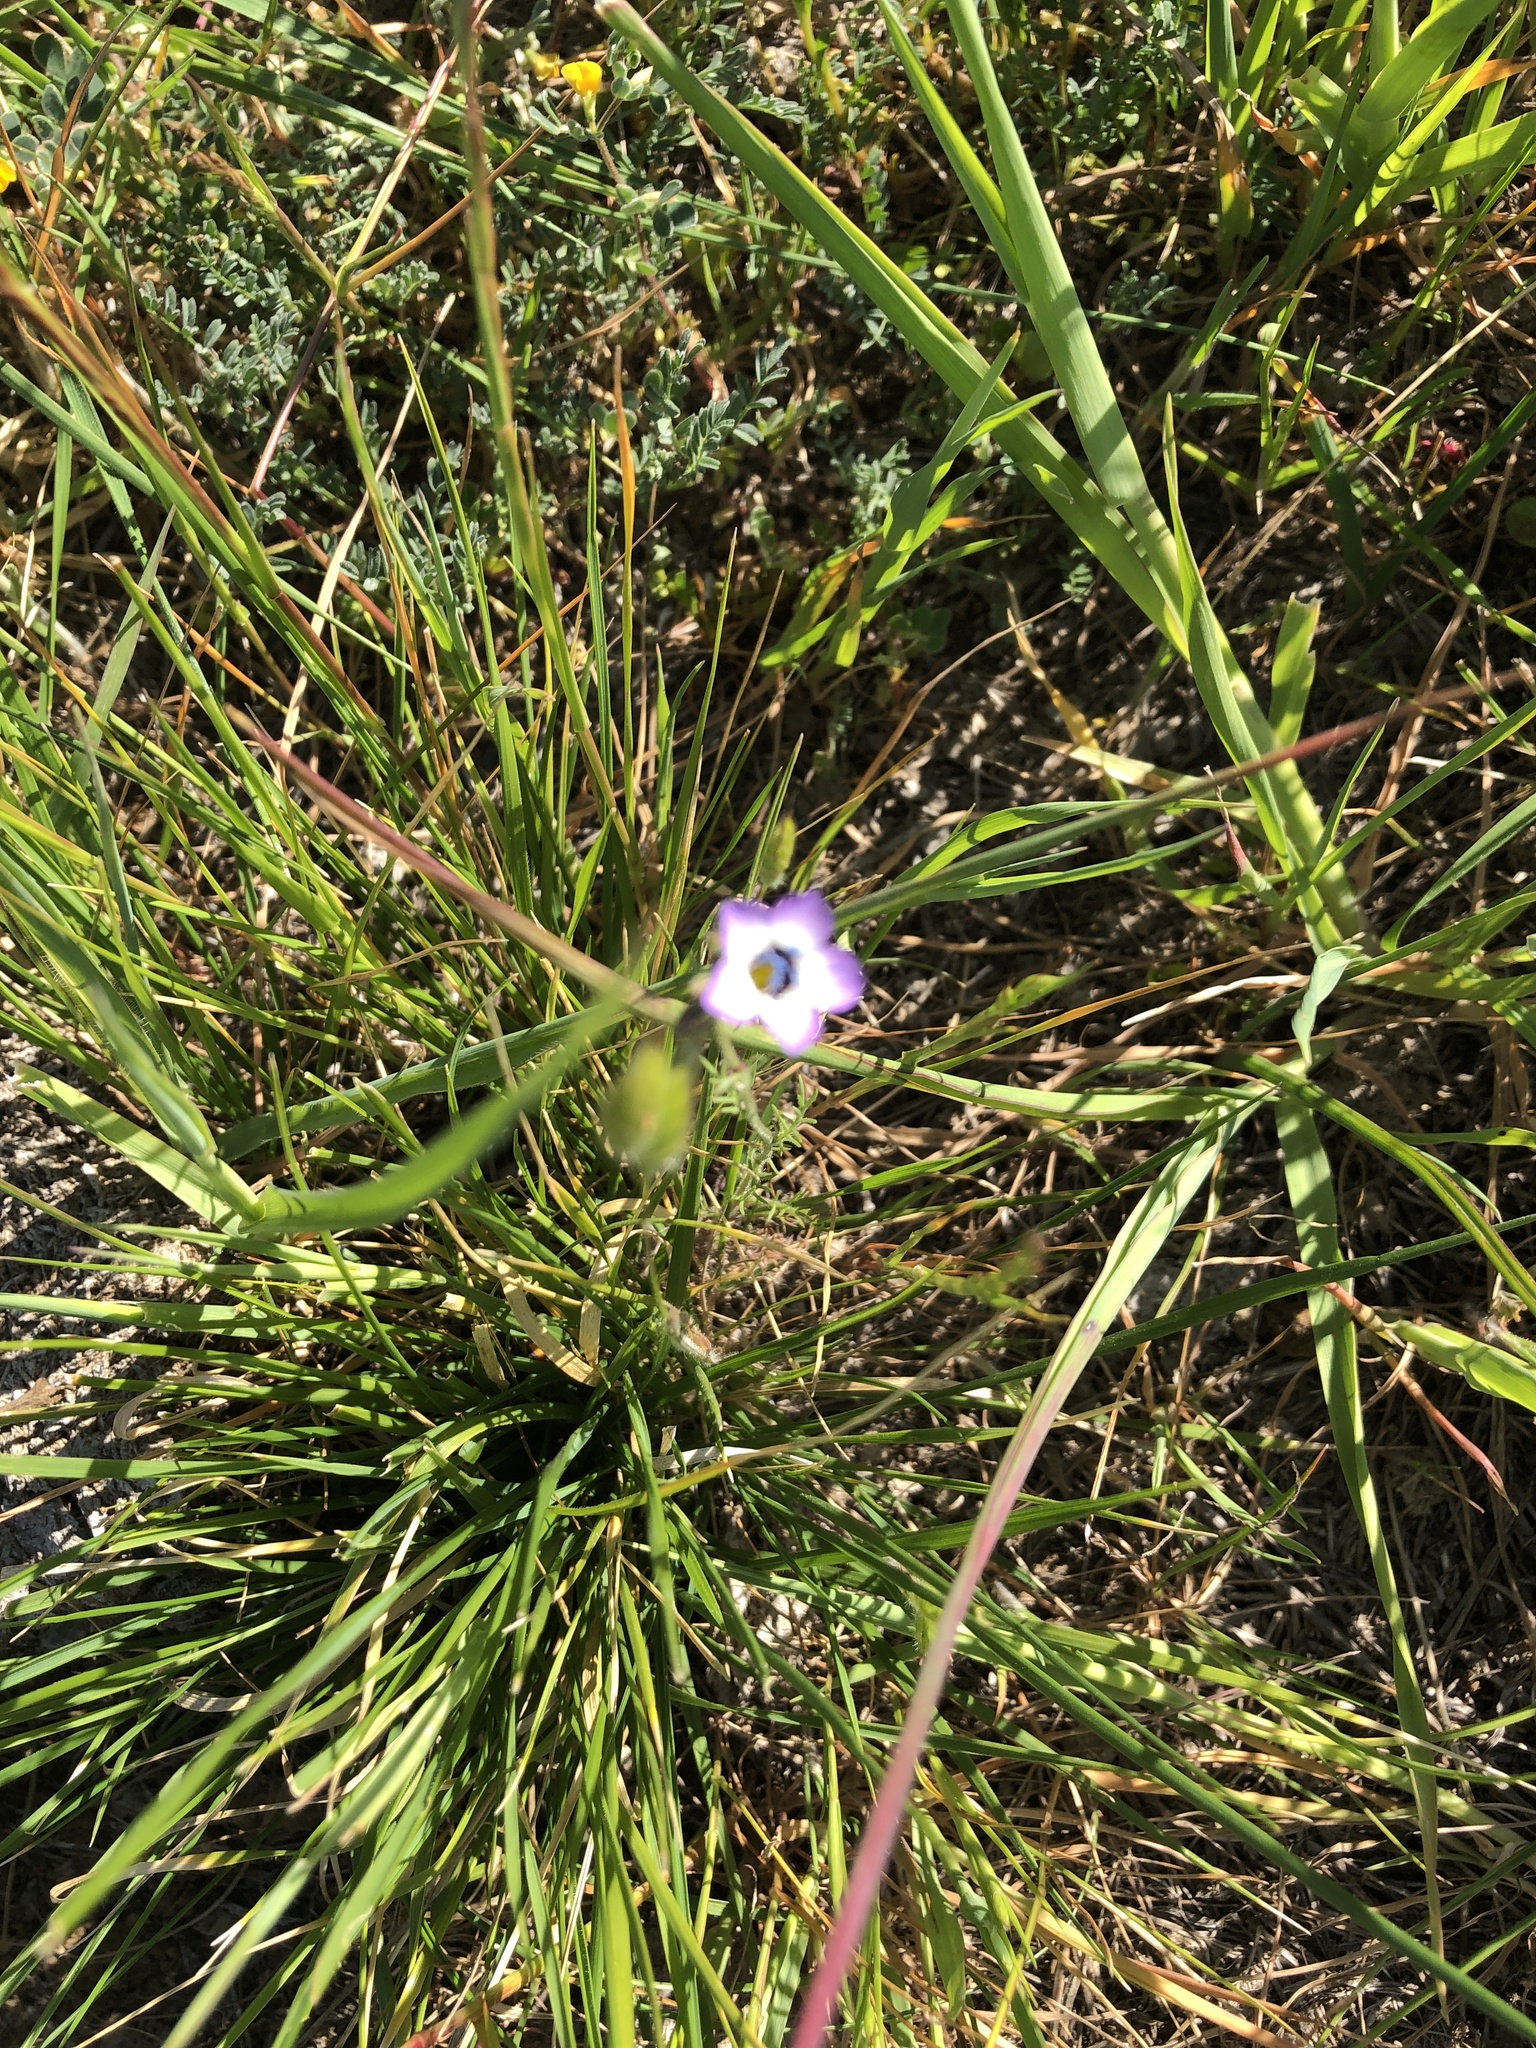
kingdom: Plantae
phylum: Tracheophyta
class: Magnoliopsida
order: Ericales
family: Polemoniaceae
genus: Gilia
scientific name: Gilia tricolor
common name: Bird's-eyes
